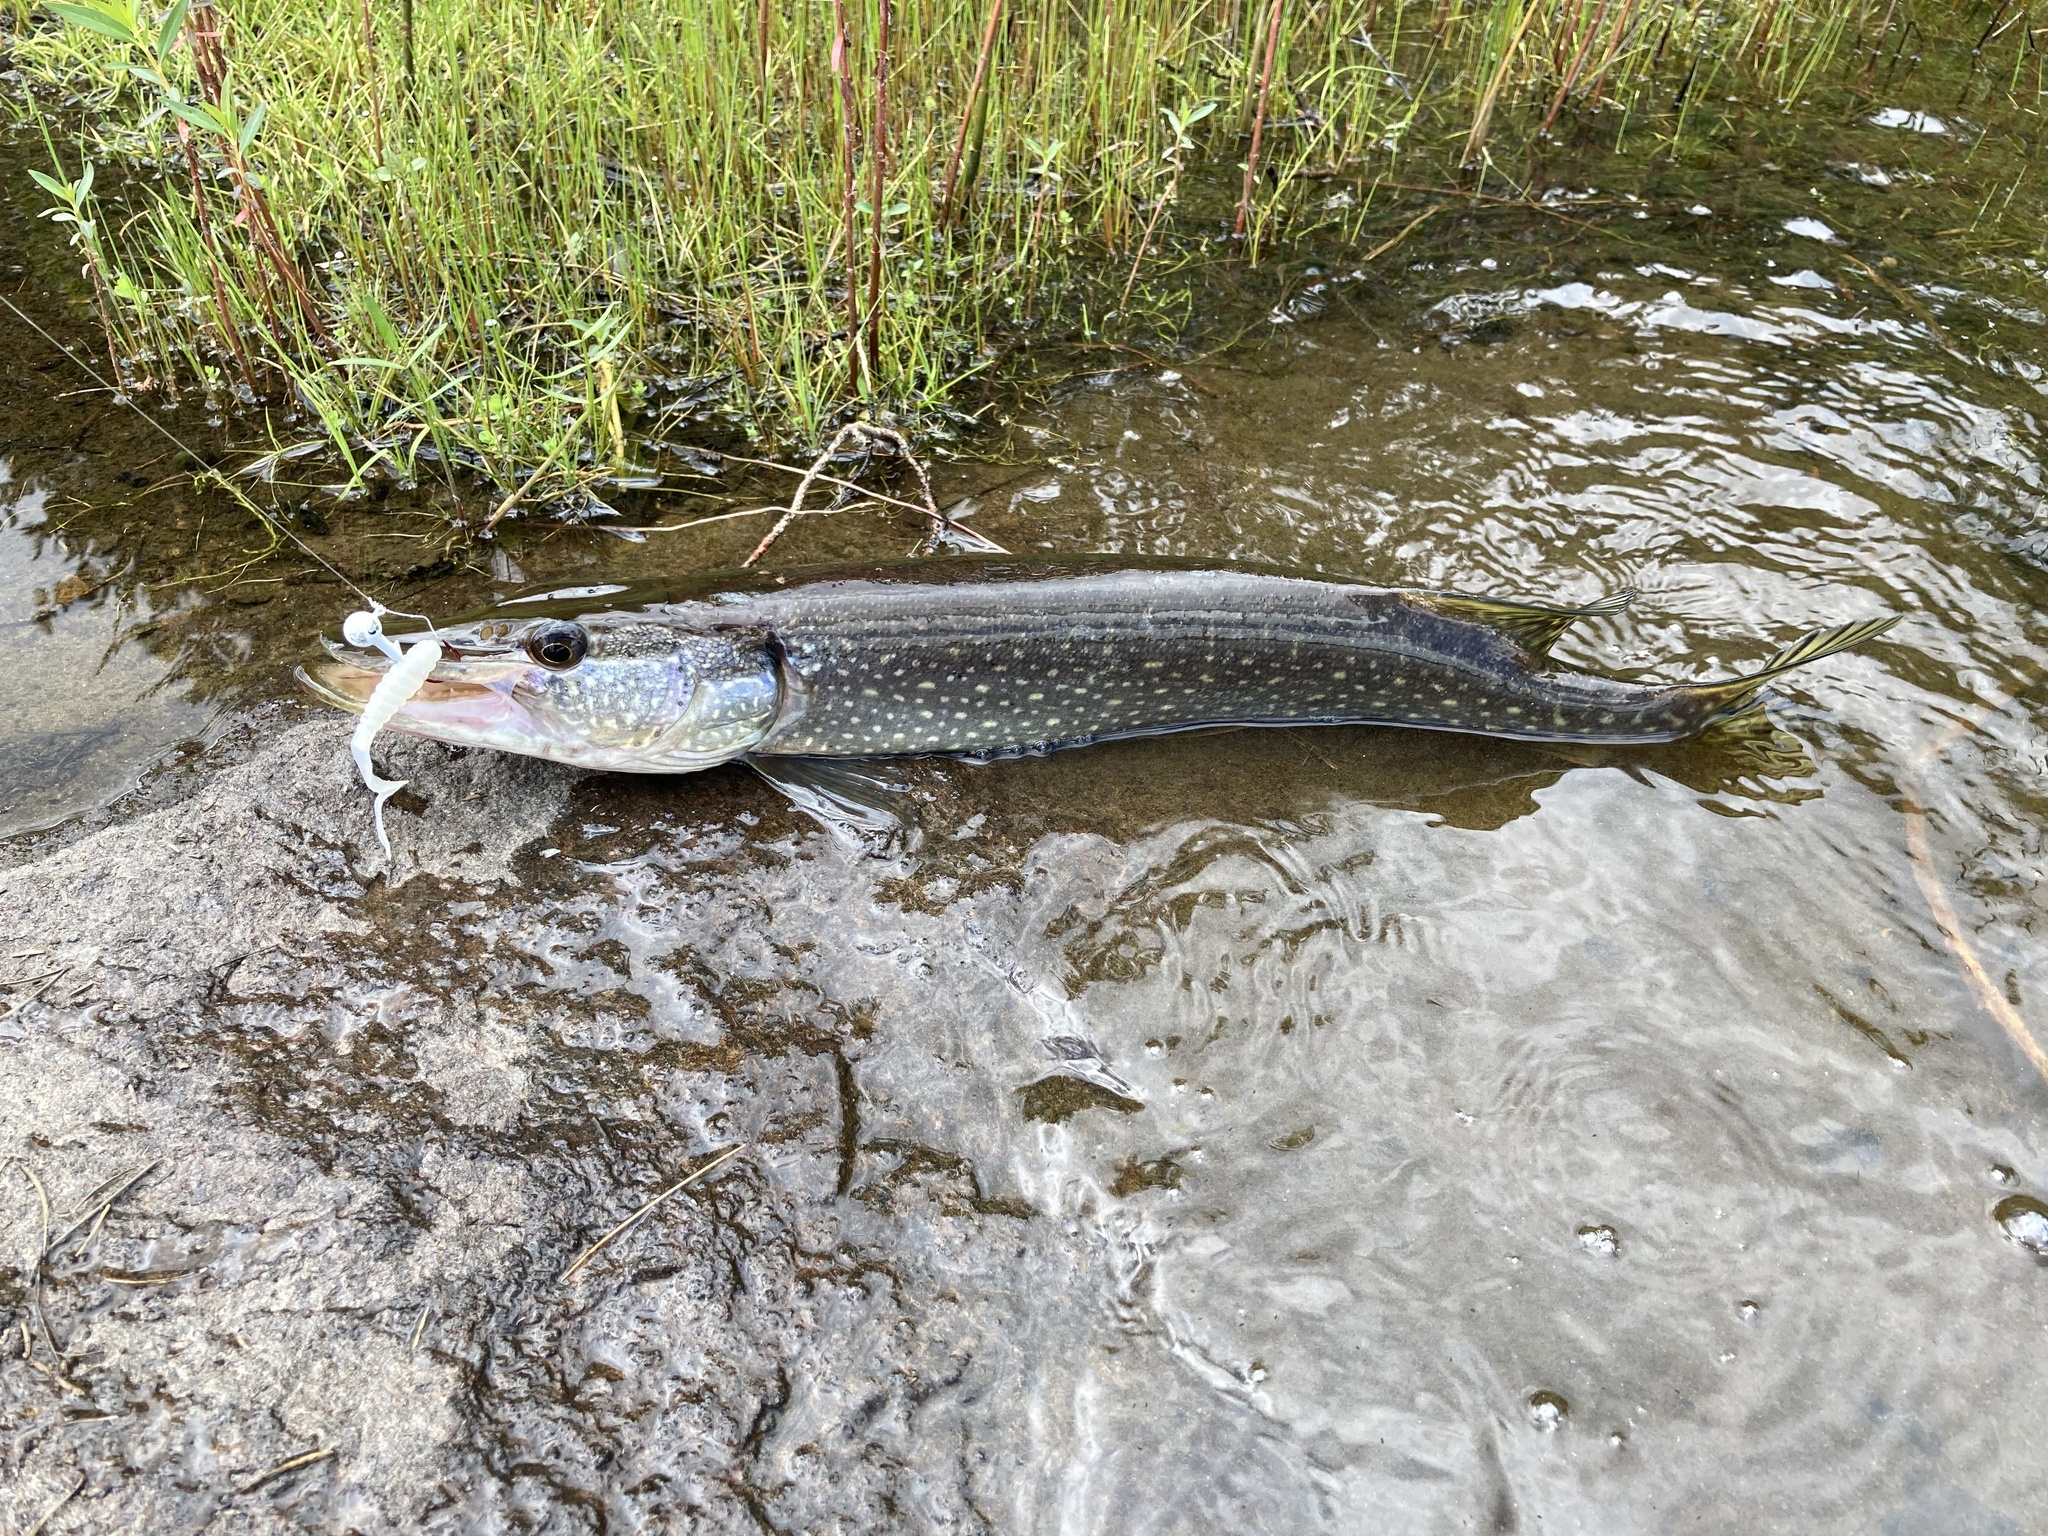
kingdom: Animalia
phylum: Chordata
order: Esociformes
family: Esocidae
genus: Esox
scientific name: Esox lucius
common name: Northern pike
